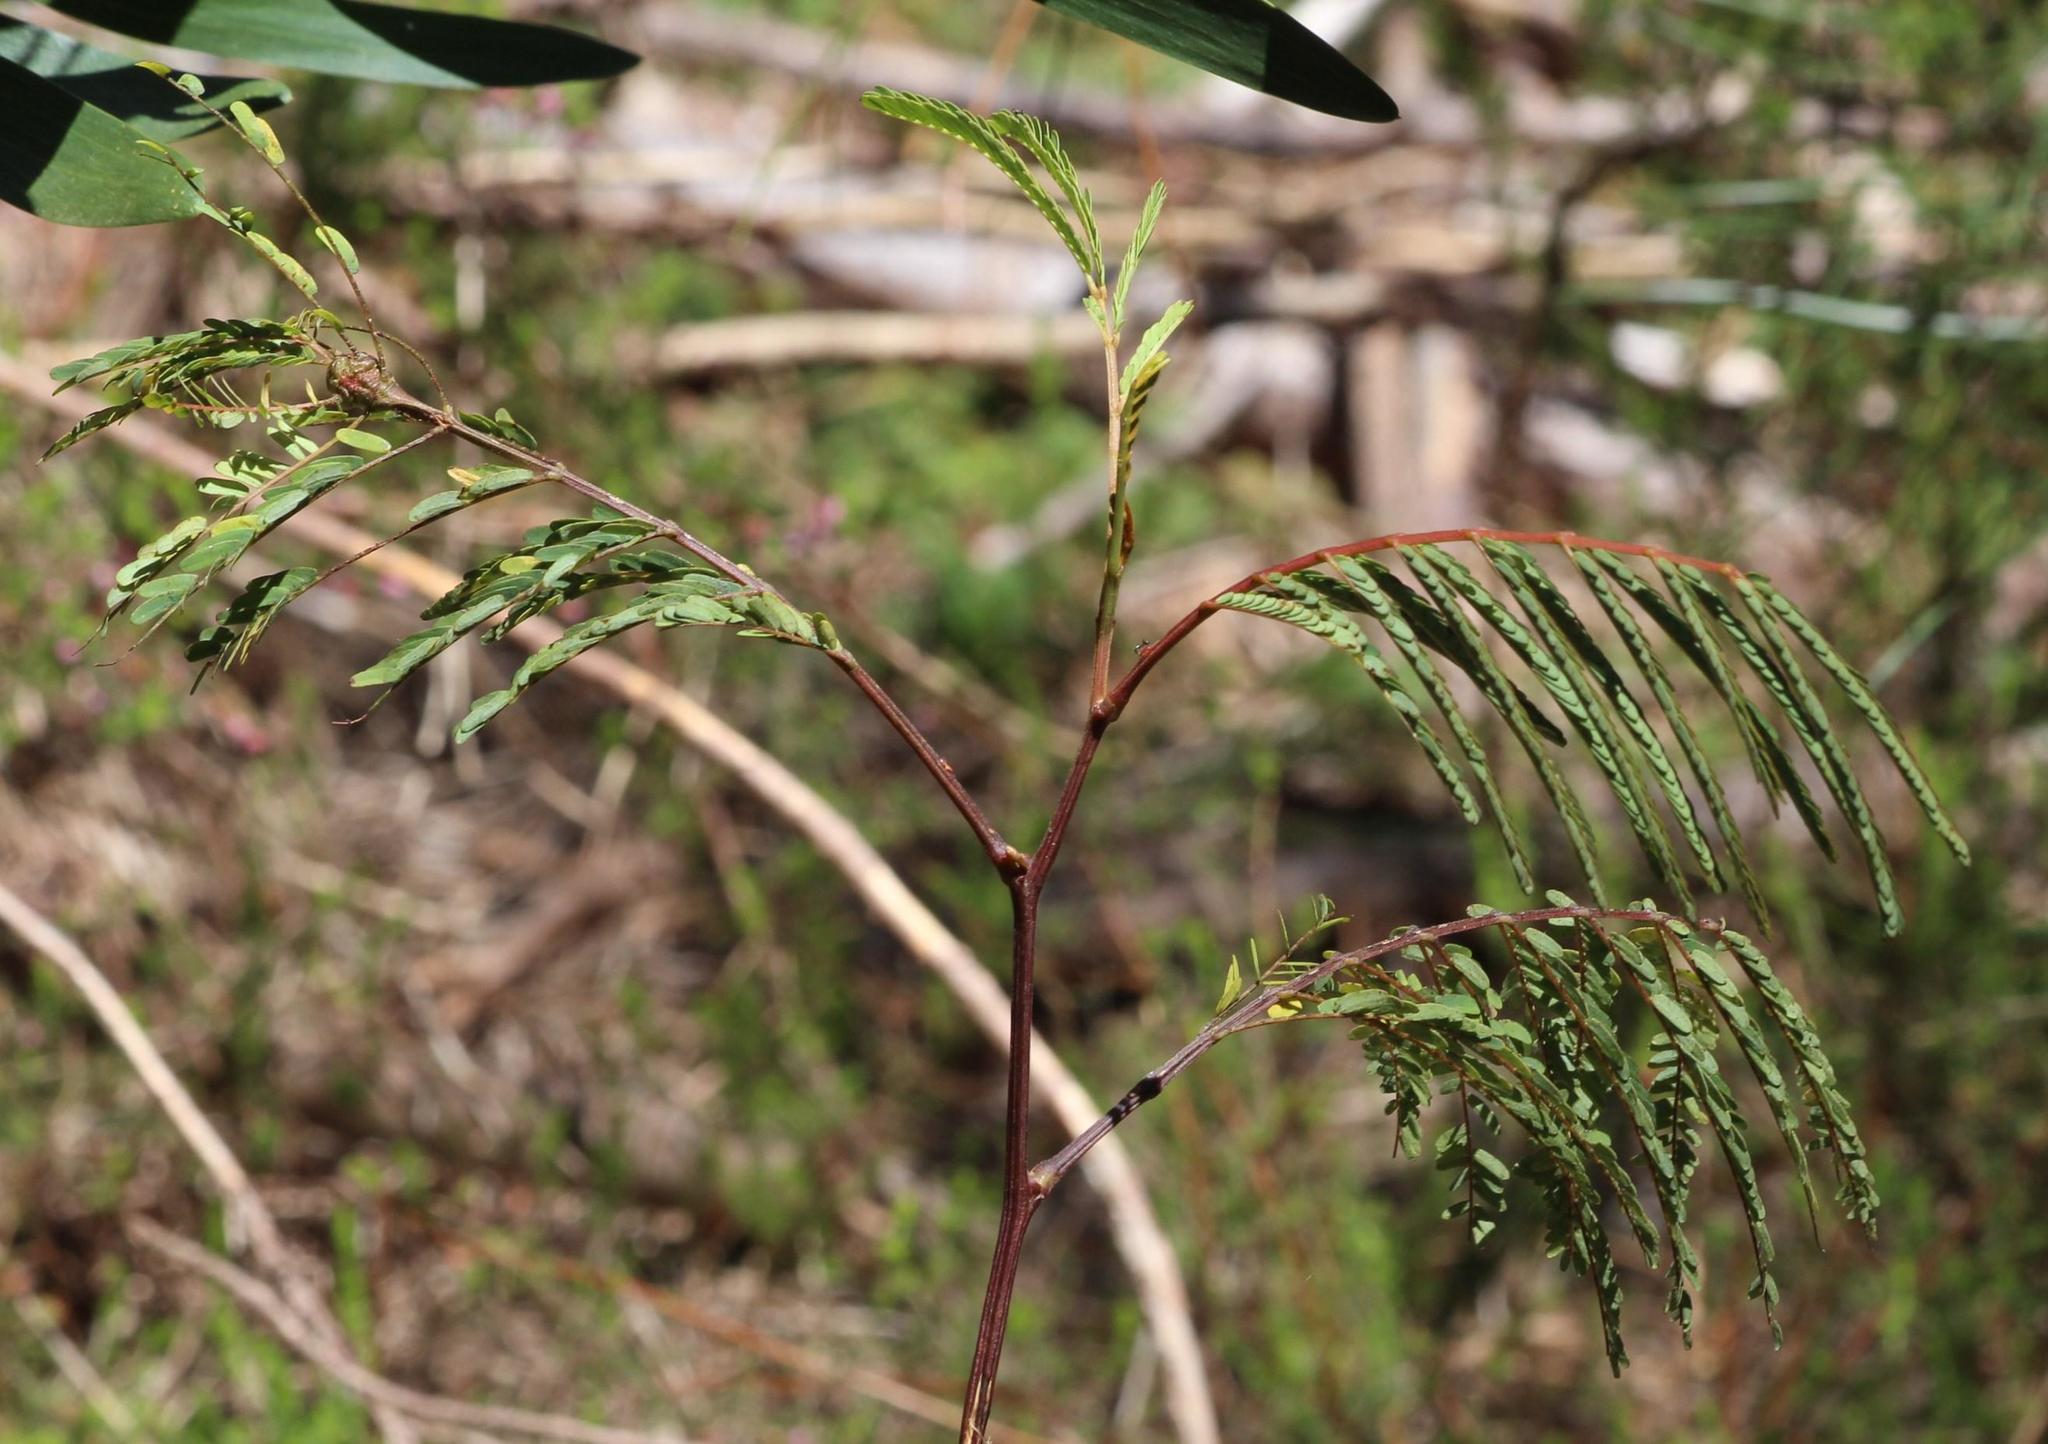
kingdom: Plantae
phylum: Tracheophyta
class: Magnoliopsida
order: Fabales
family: Fabaceae
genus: Paraserianthes
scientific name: Paraserianthes lophantha
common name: Plume albizia
